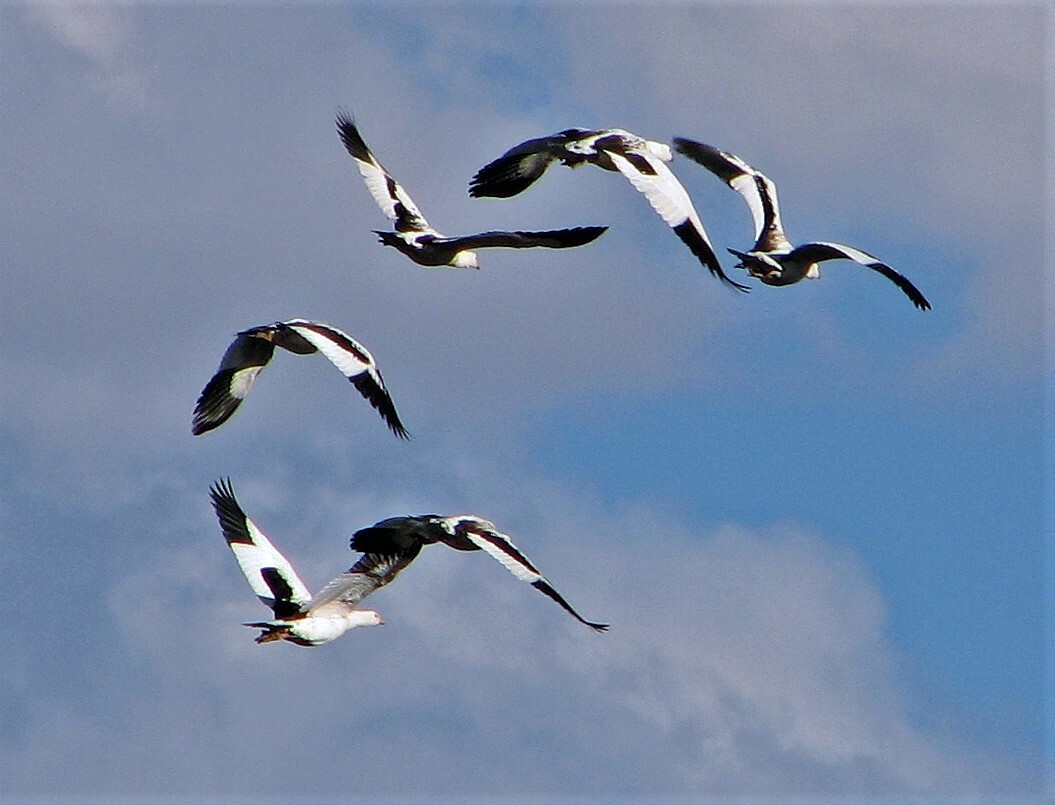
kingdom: Animalia
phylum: Chordata
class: Aves
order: Anseriformes
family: Anatidae
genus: Chloephaga
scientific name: Chloephaga melanoptera
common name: Andean goose
